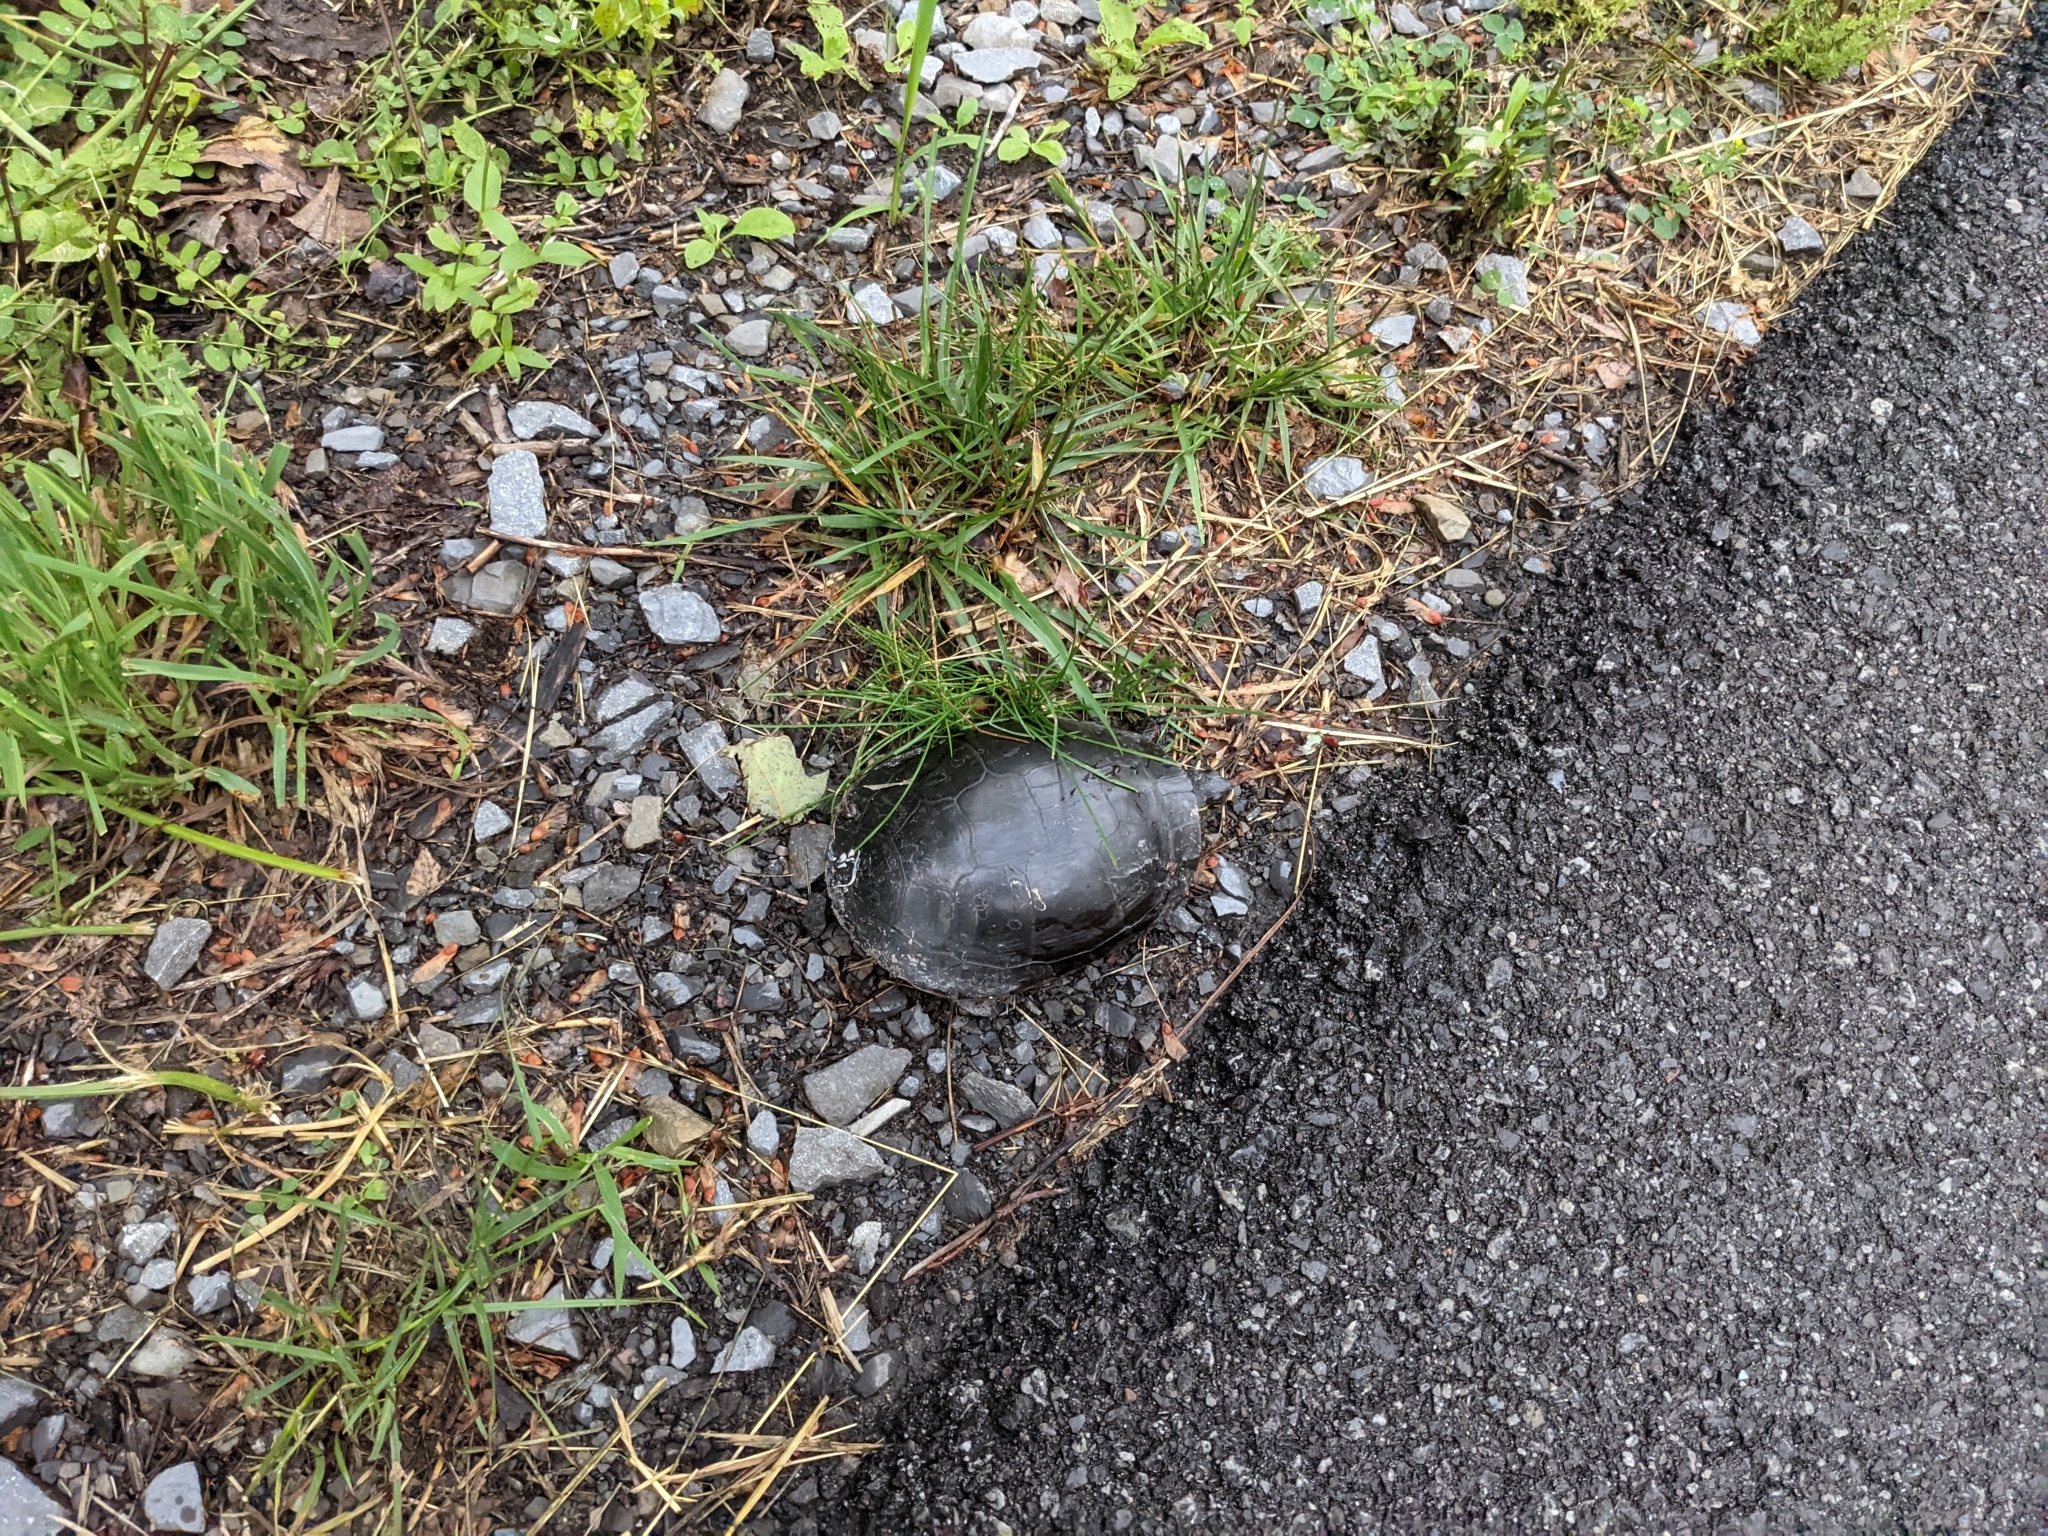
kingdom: Animalia
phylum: Chordata
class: Testudines
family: Emydidae
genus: Chrysemys
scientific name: Chrysemys picta
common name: Painted turtle
